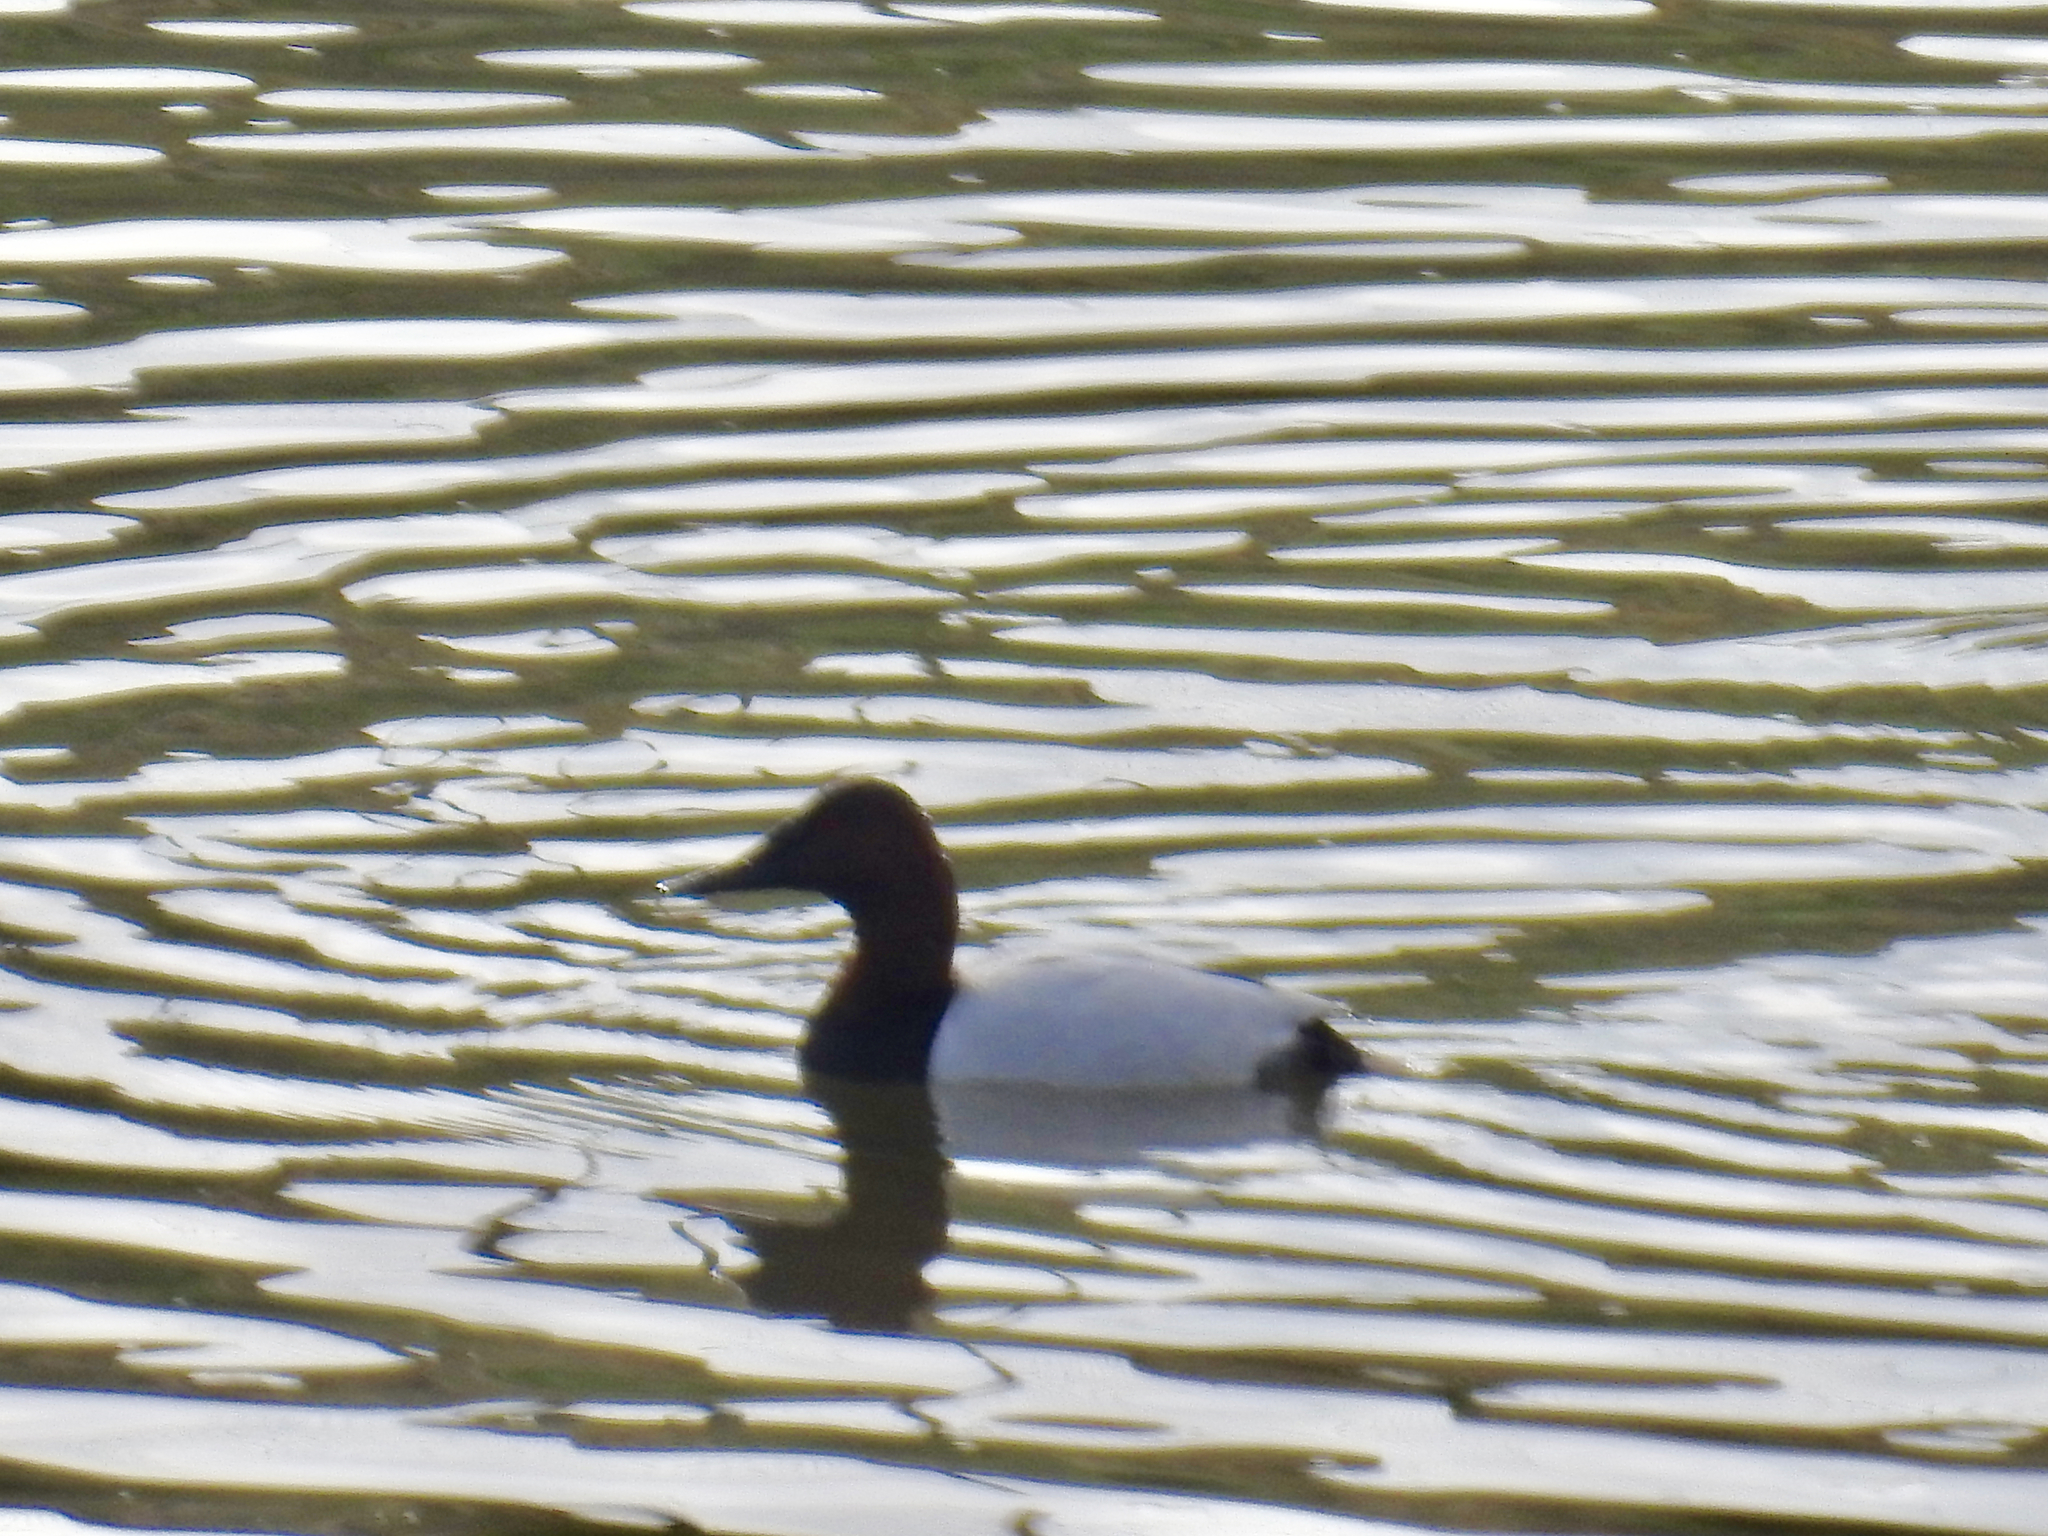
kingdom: Animalia
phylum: Chordata
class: Aves
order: Anseriformes
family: Anatidae
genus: Aythya
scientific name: Aythya valisineria
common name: Canvasback
